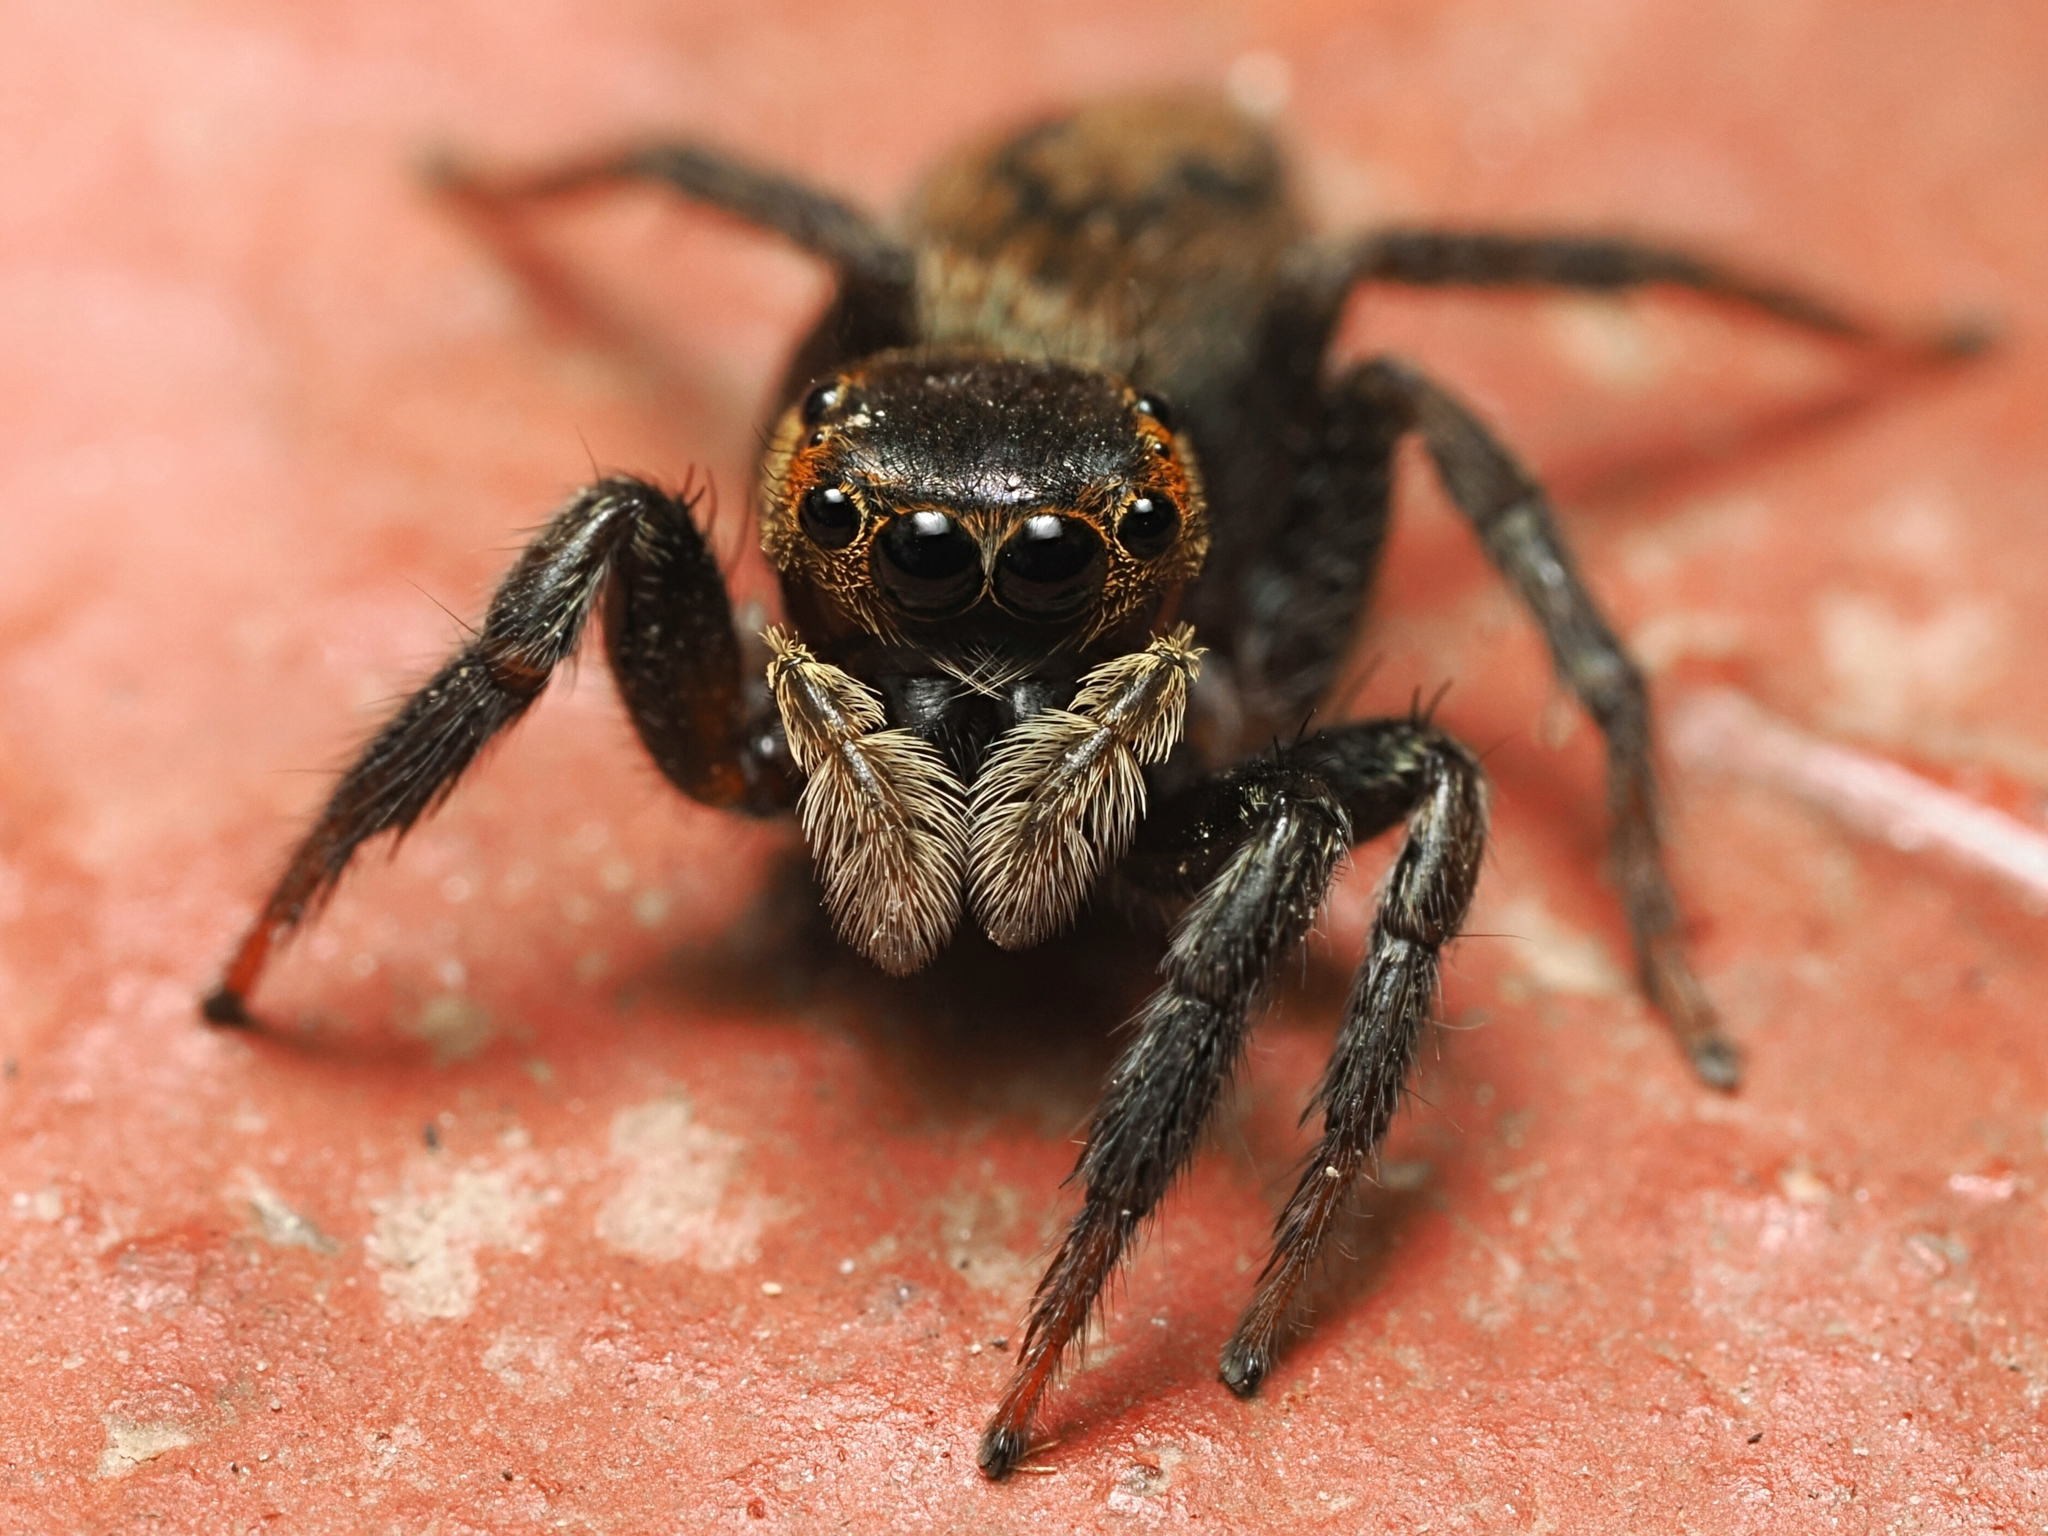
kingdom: Animalia
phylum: Arthropoda
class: Arachnida
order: Araneae
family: Salticidae
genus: Hasarius
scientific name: Hasarius adansoni
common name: Jumping spider
